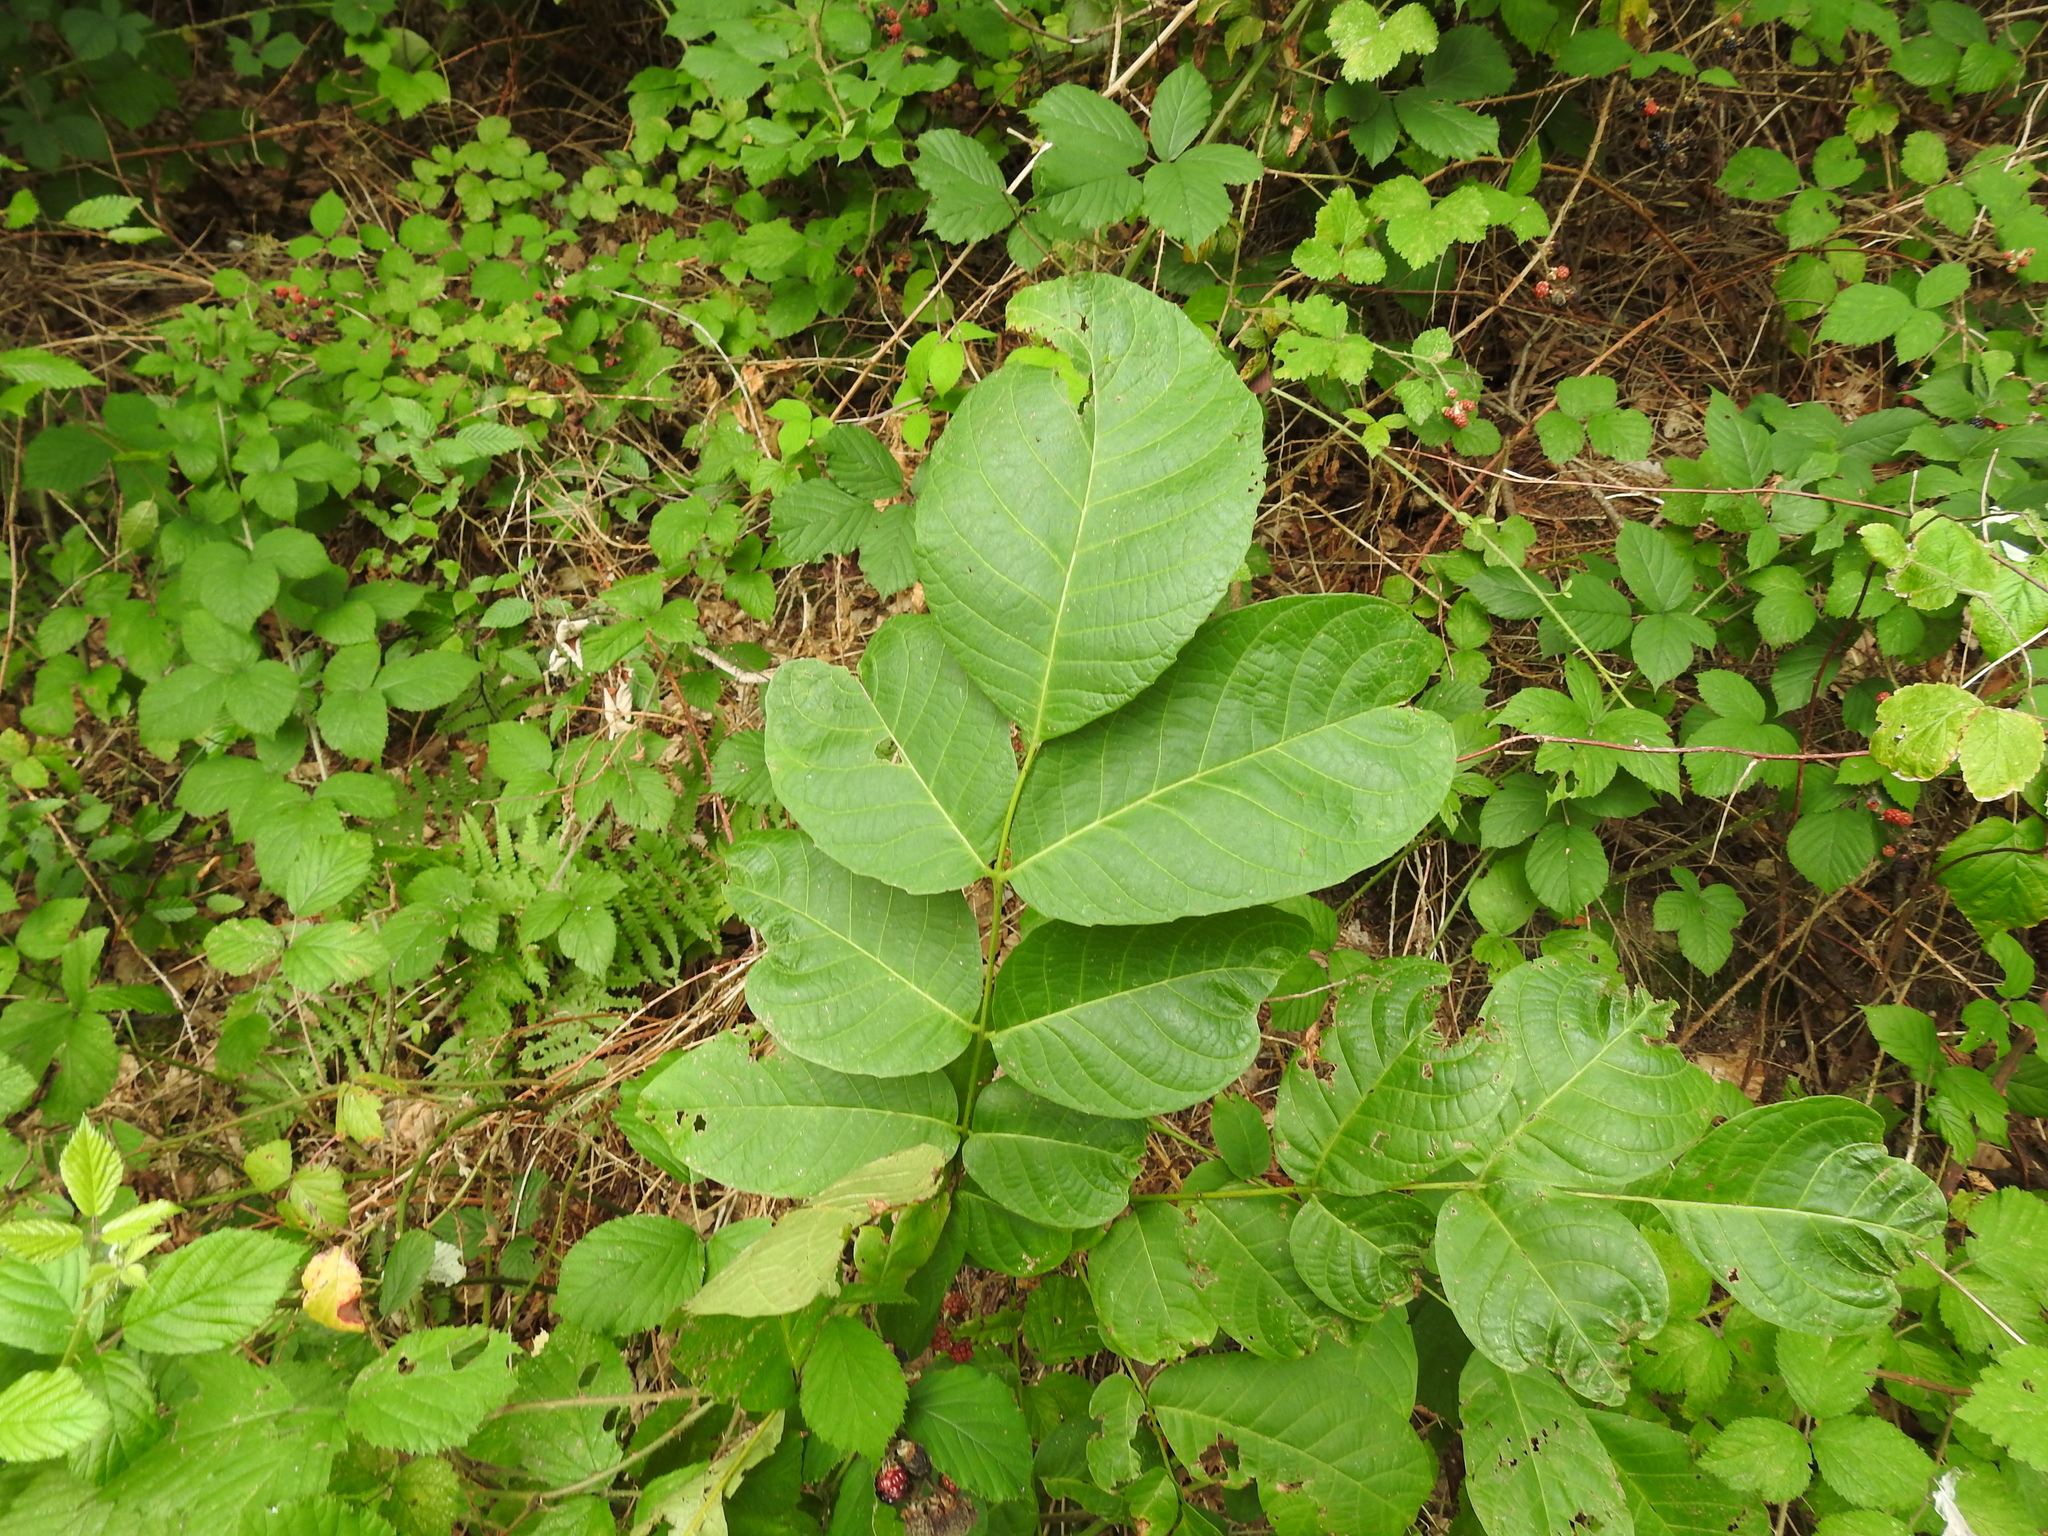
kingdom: Plantae
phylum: Tracheophyta
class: Magnoliopsida
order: Fagales
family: Juglandaceae
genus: Juglans
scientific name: Juglans regia
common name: Walnut
